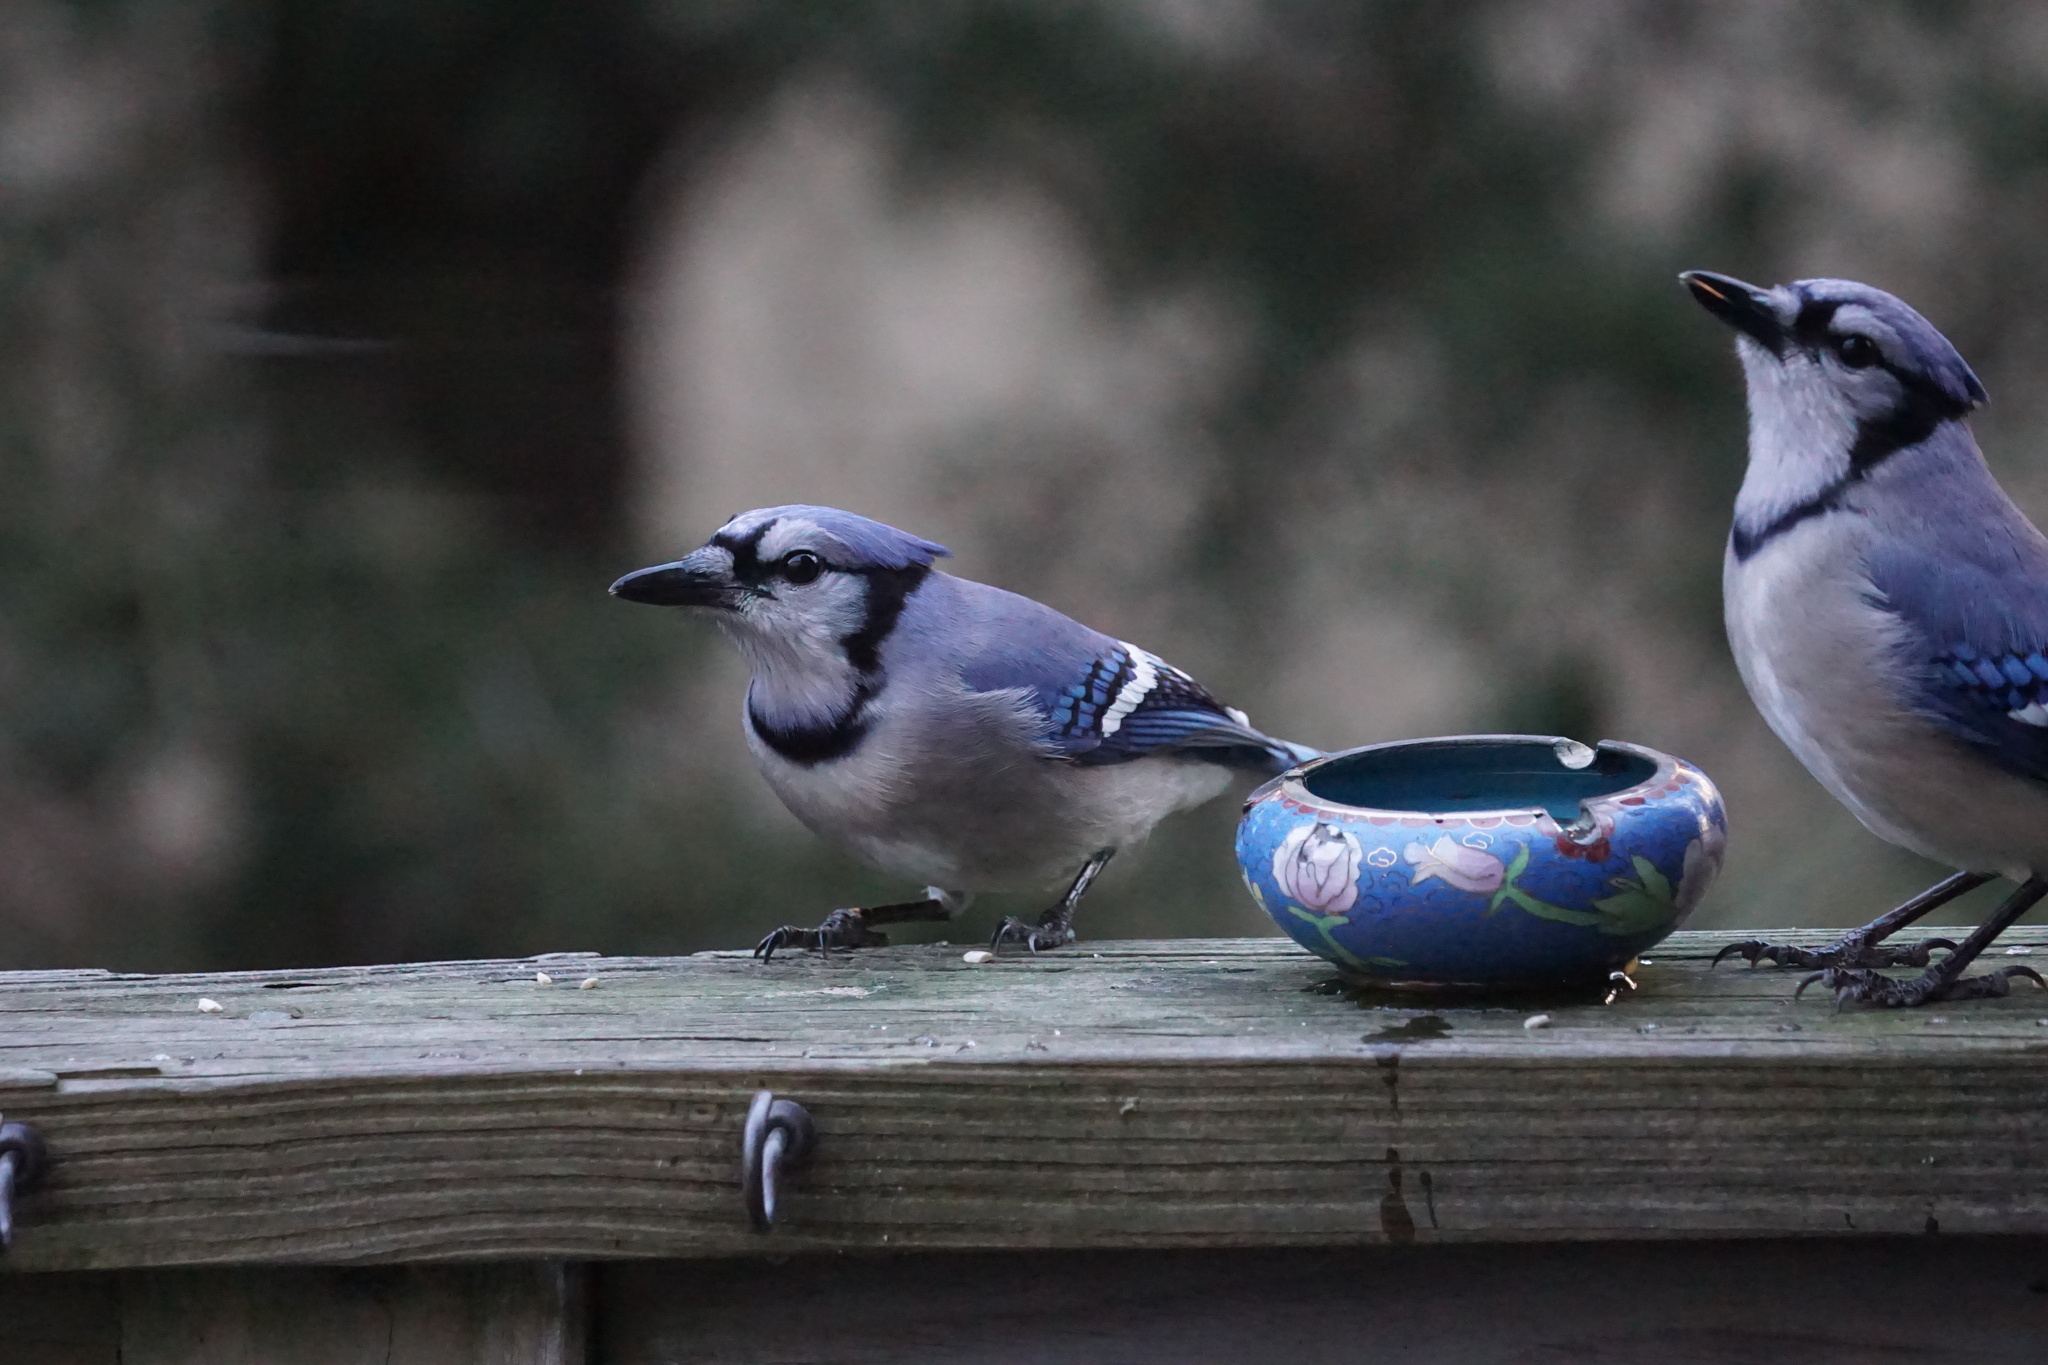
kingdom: Animalia
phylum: Chordata
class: Aves
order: Passeriformes
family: Corvidae
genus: Cyanocitta
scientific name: Cyanocitta cristata
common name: Blue jay
